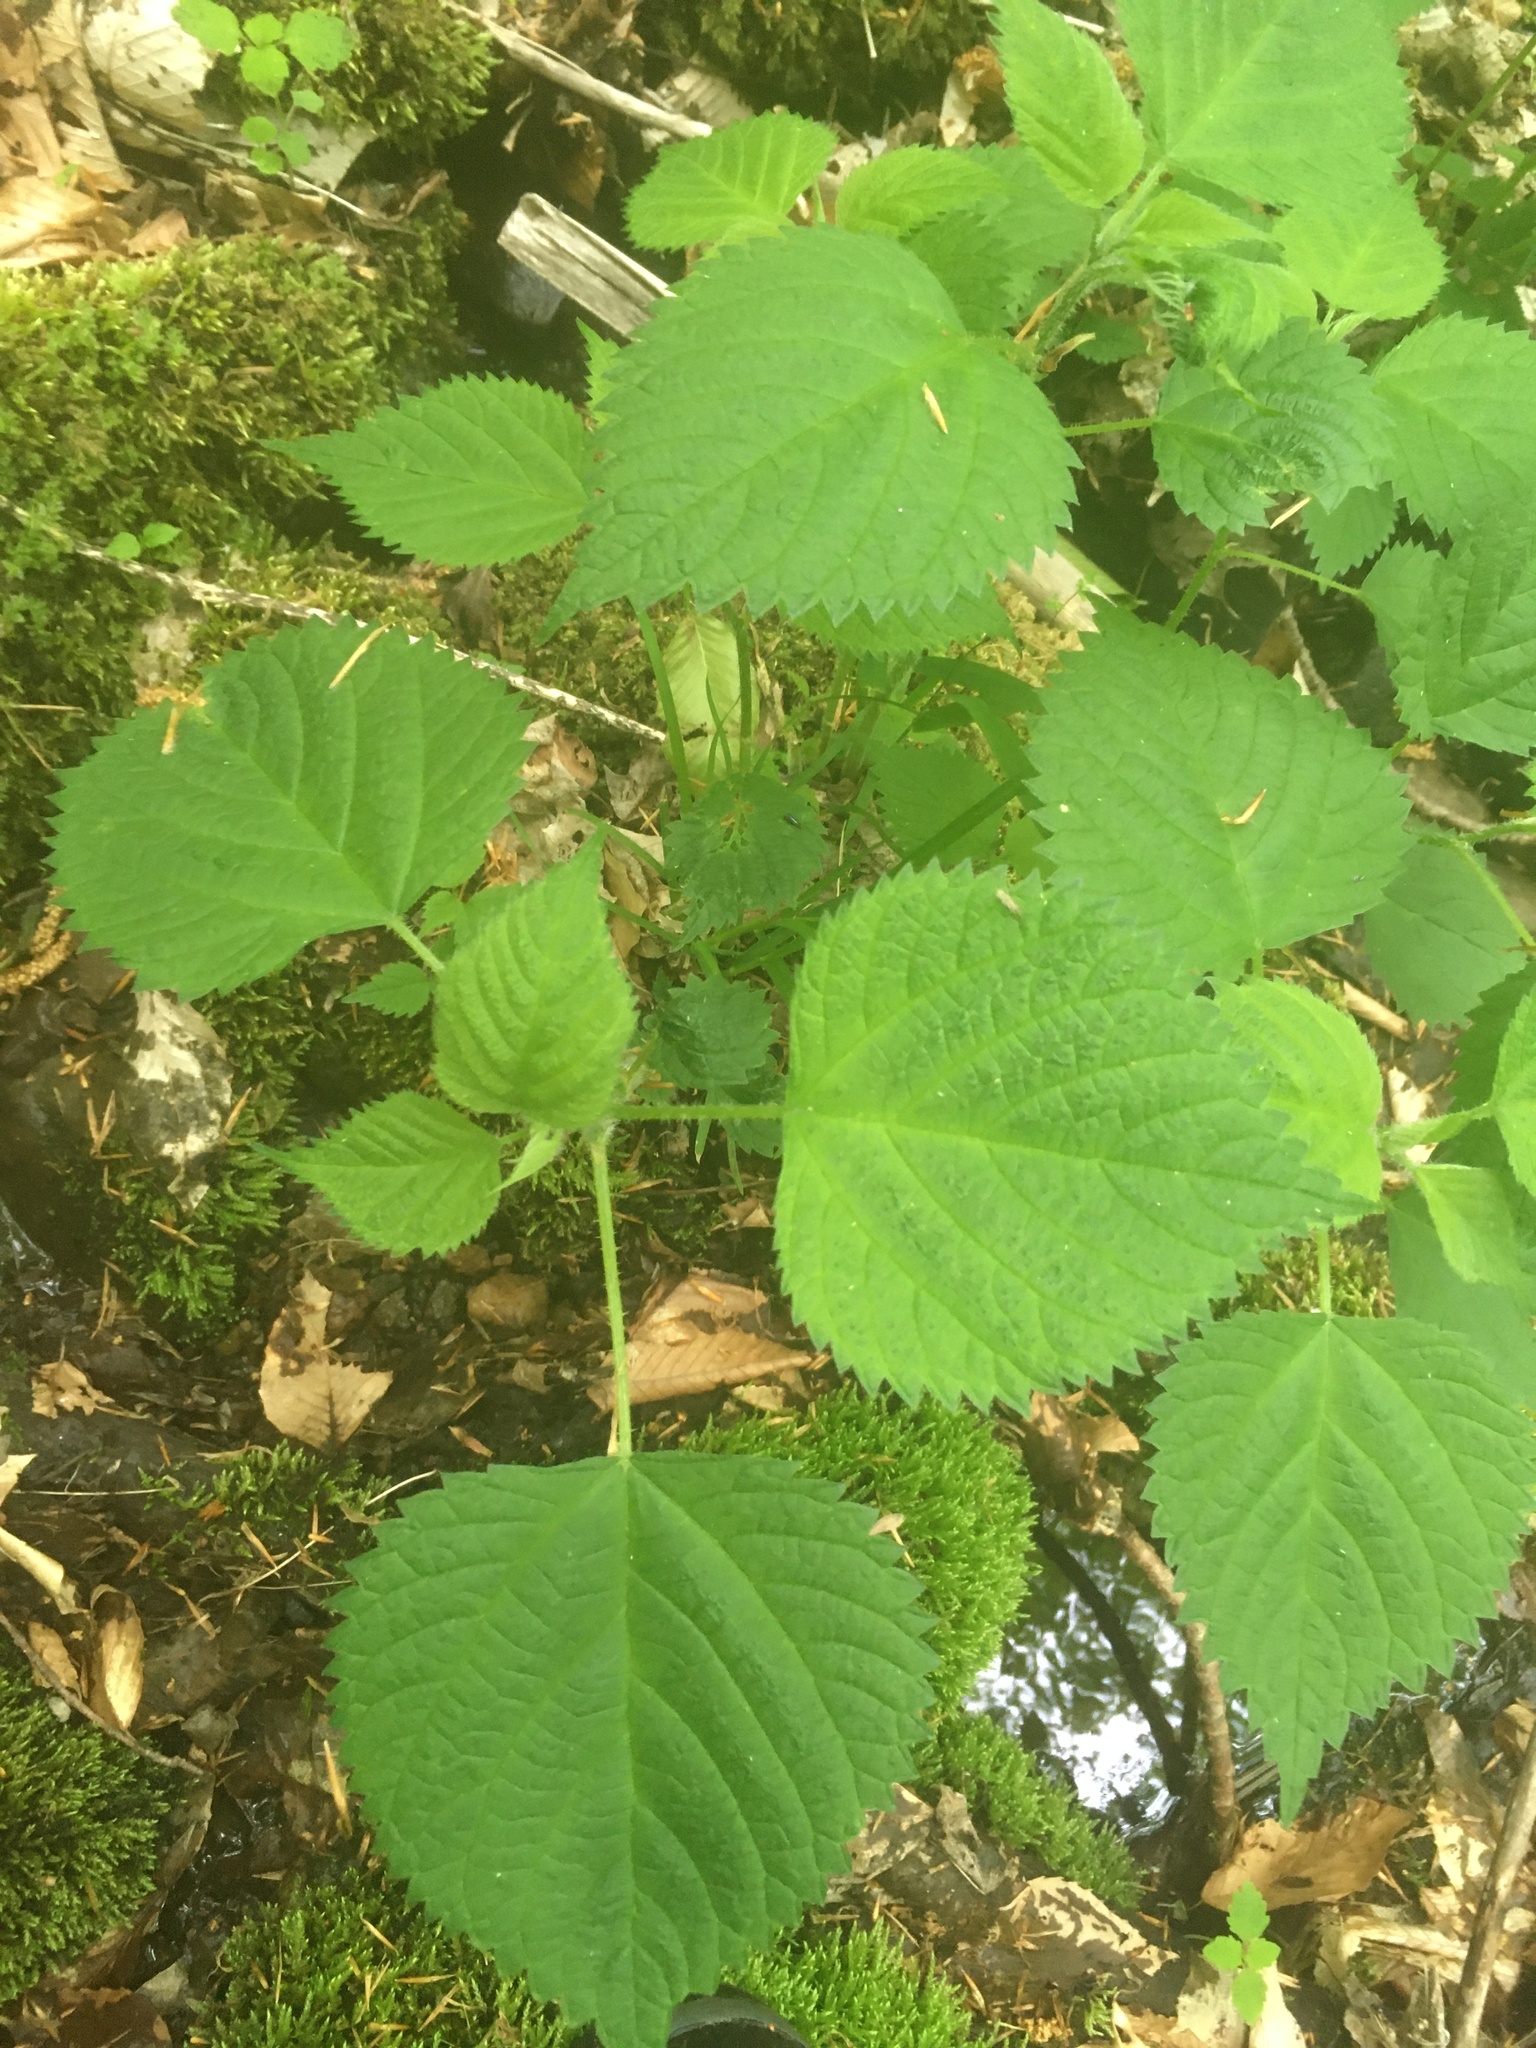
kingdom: Plantae
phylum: Tracheophyta
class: Magnoliopsida
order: Rosales
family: Urticaceae
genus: Laportea
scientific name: Laportea canadensis
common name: Canada nettle
